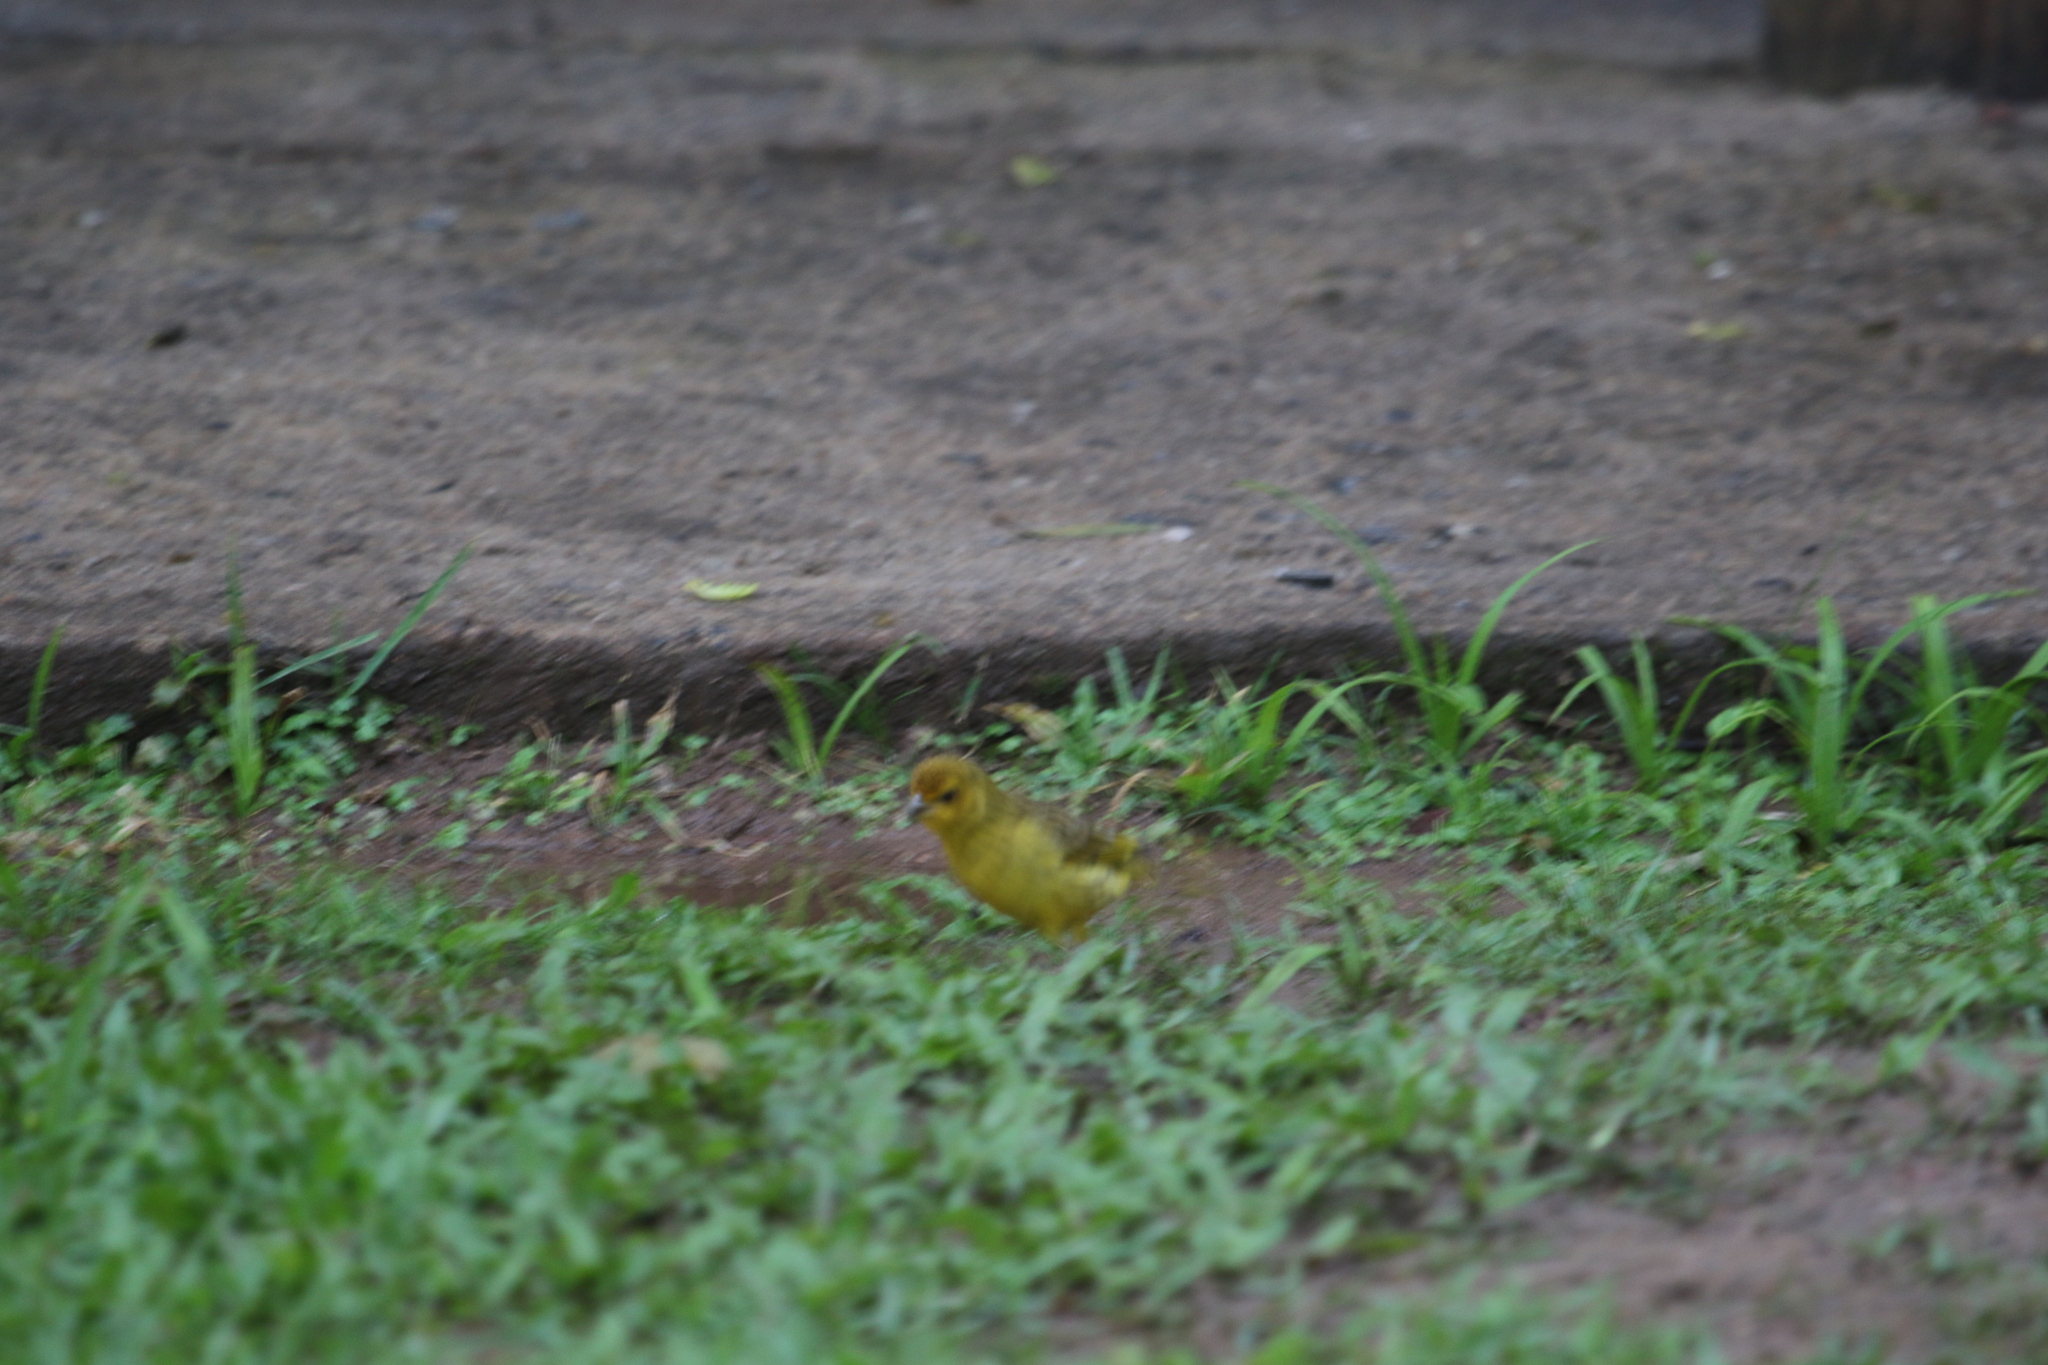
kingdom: Animalia
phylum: Chordata
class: Aves
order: Passeriformes
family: Thraupidae
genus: Sicalis
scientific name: Sicalis flaveola
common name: Saffron finch
